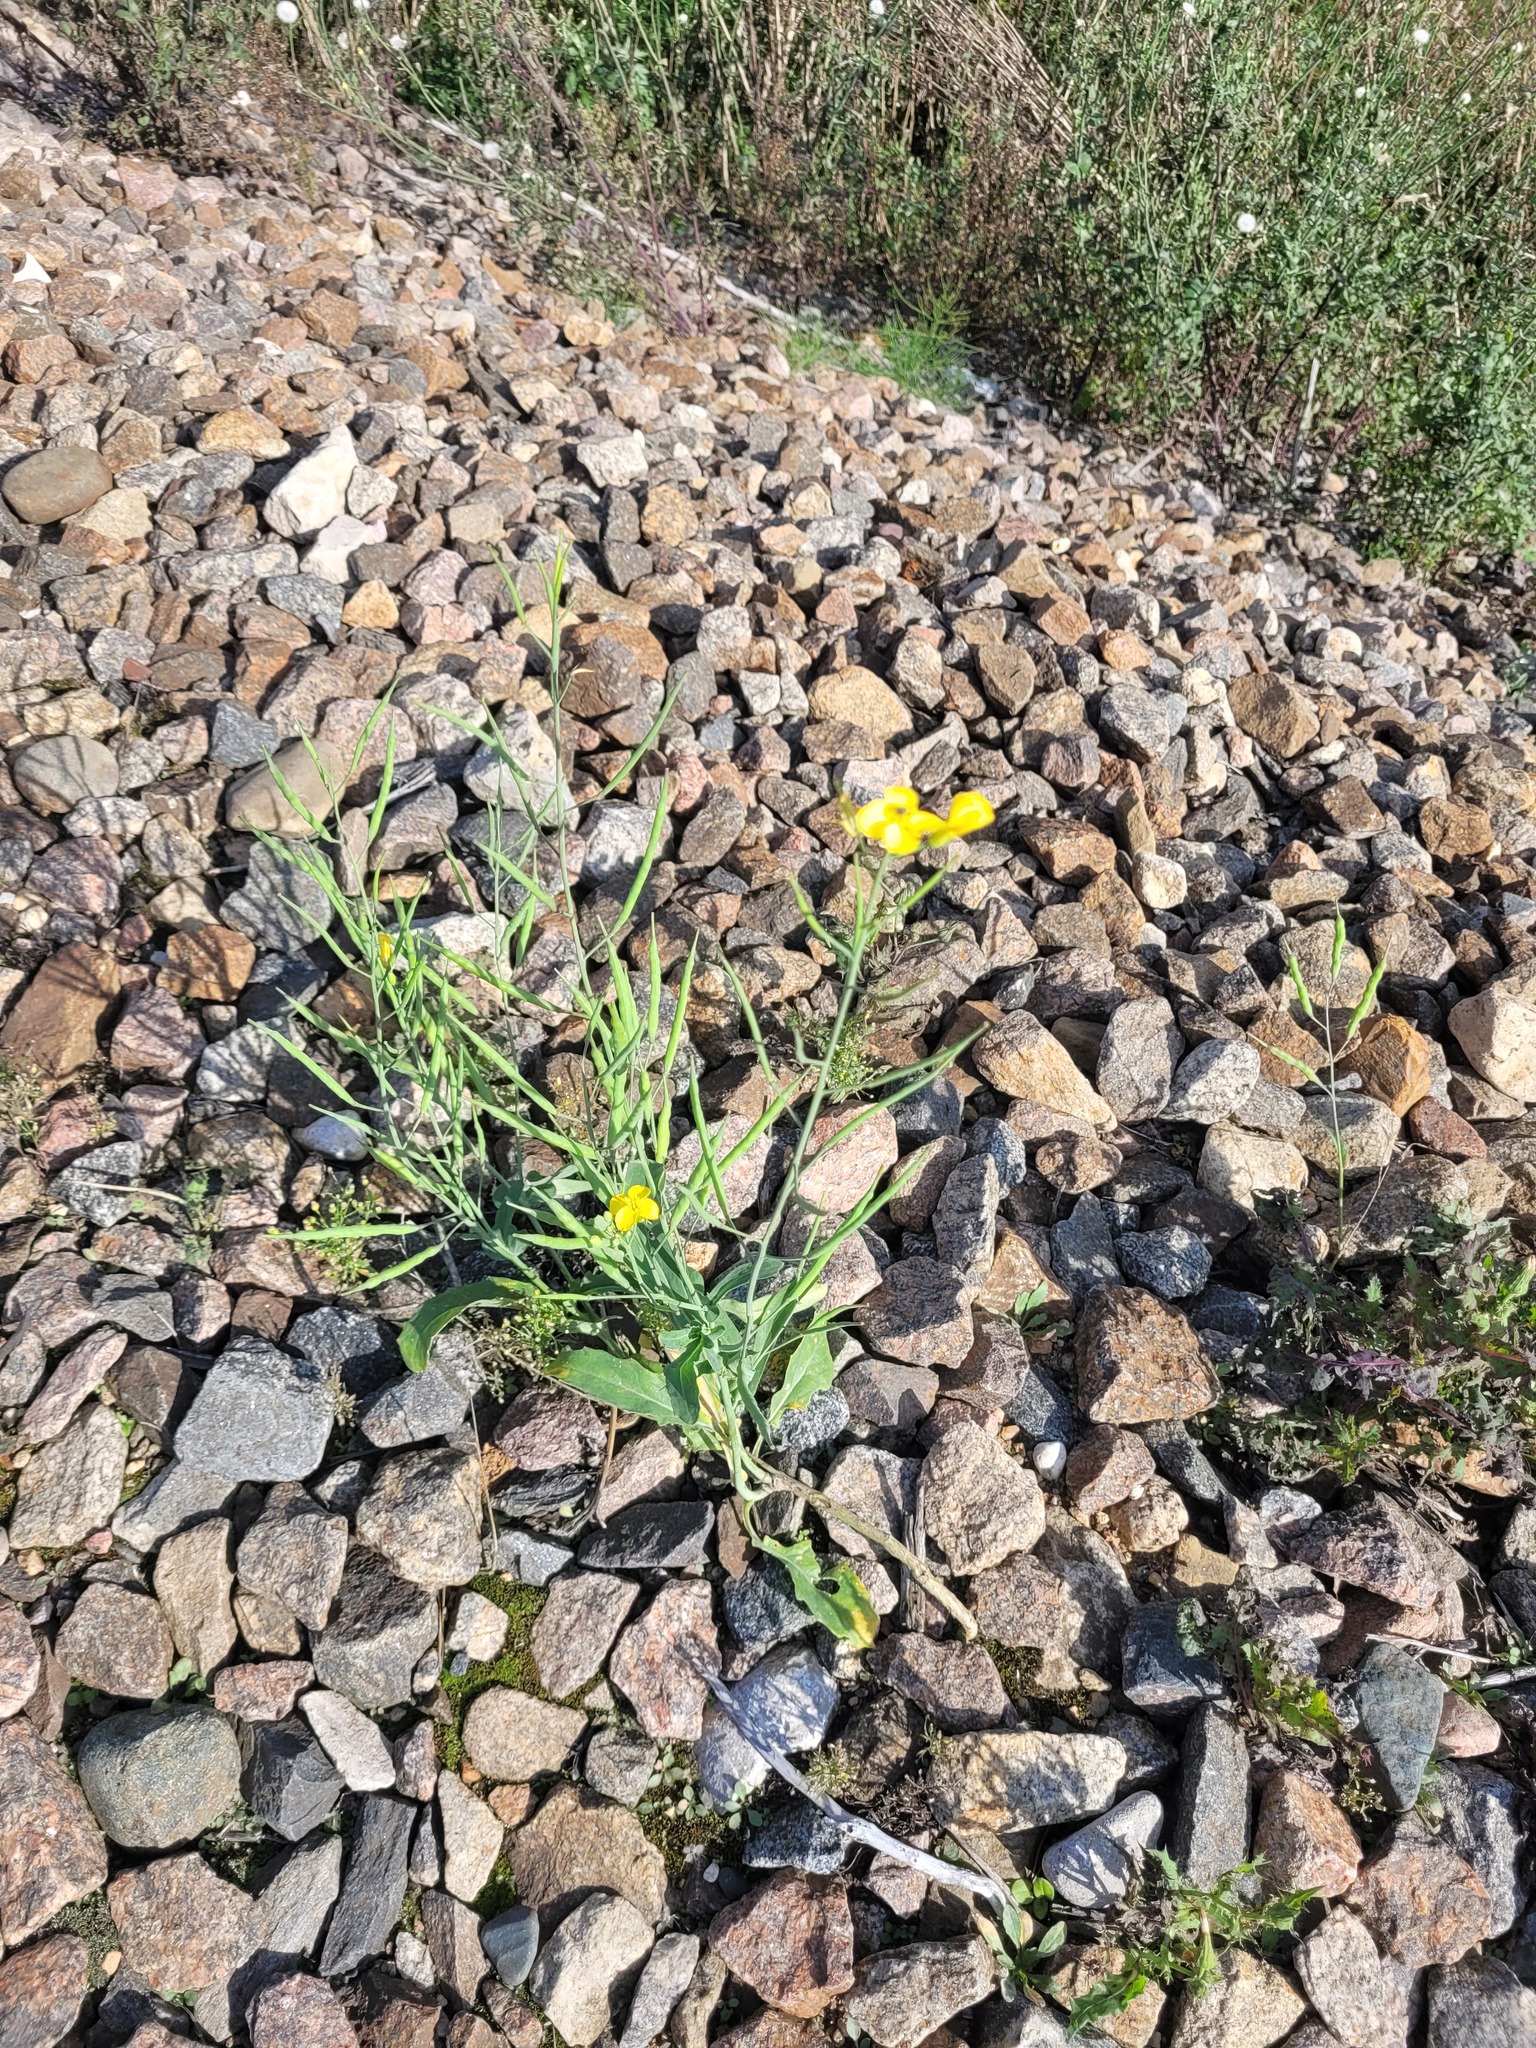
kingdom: Plantae
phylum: Tracheophyta
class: Magnoliopsida
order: Brassicales
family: Brassicaceae
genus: Brassica
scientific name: Brassica napus
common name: Rape
